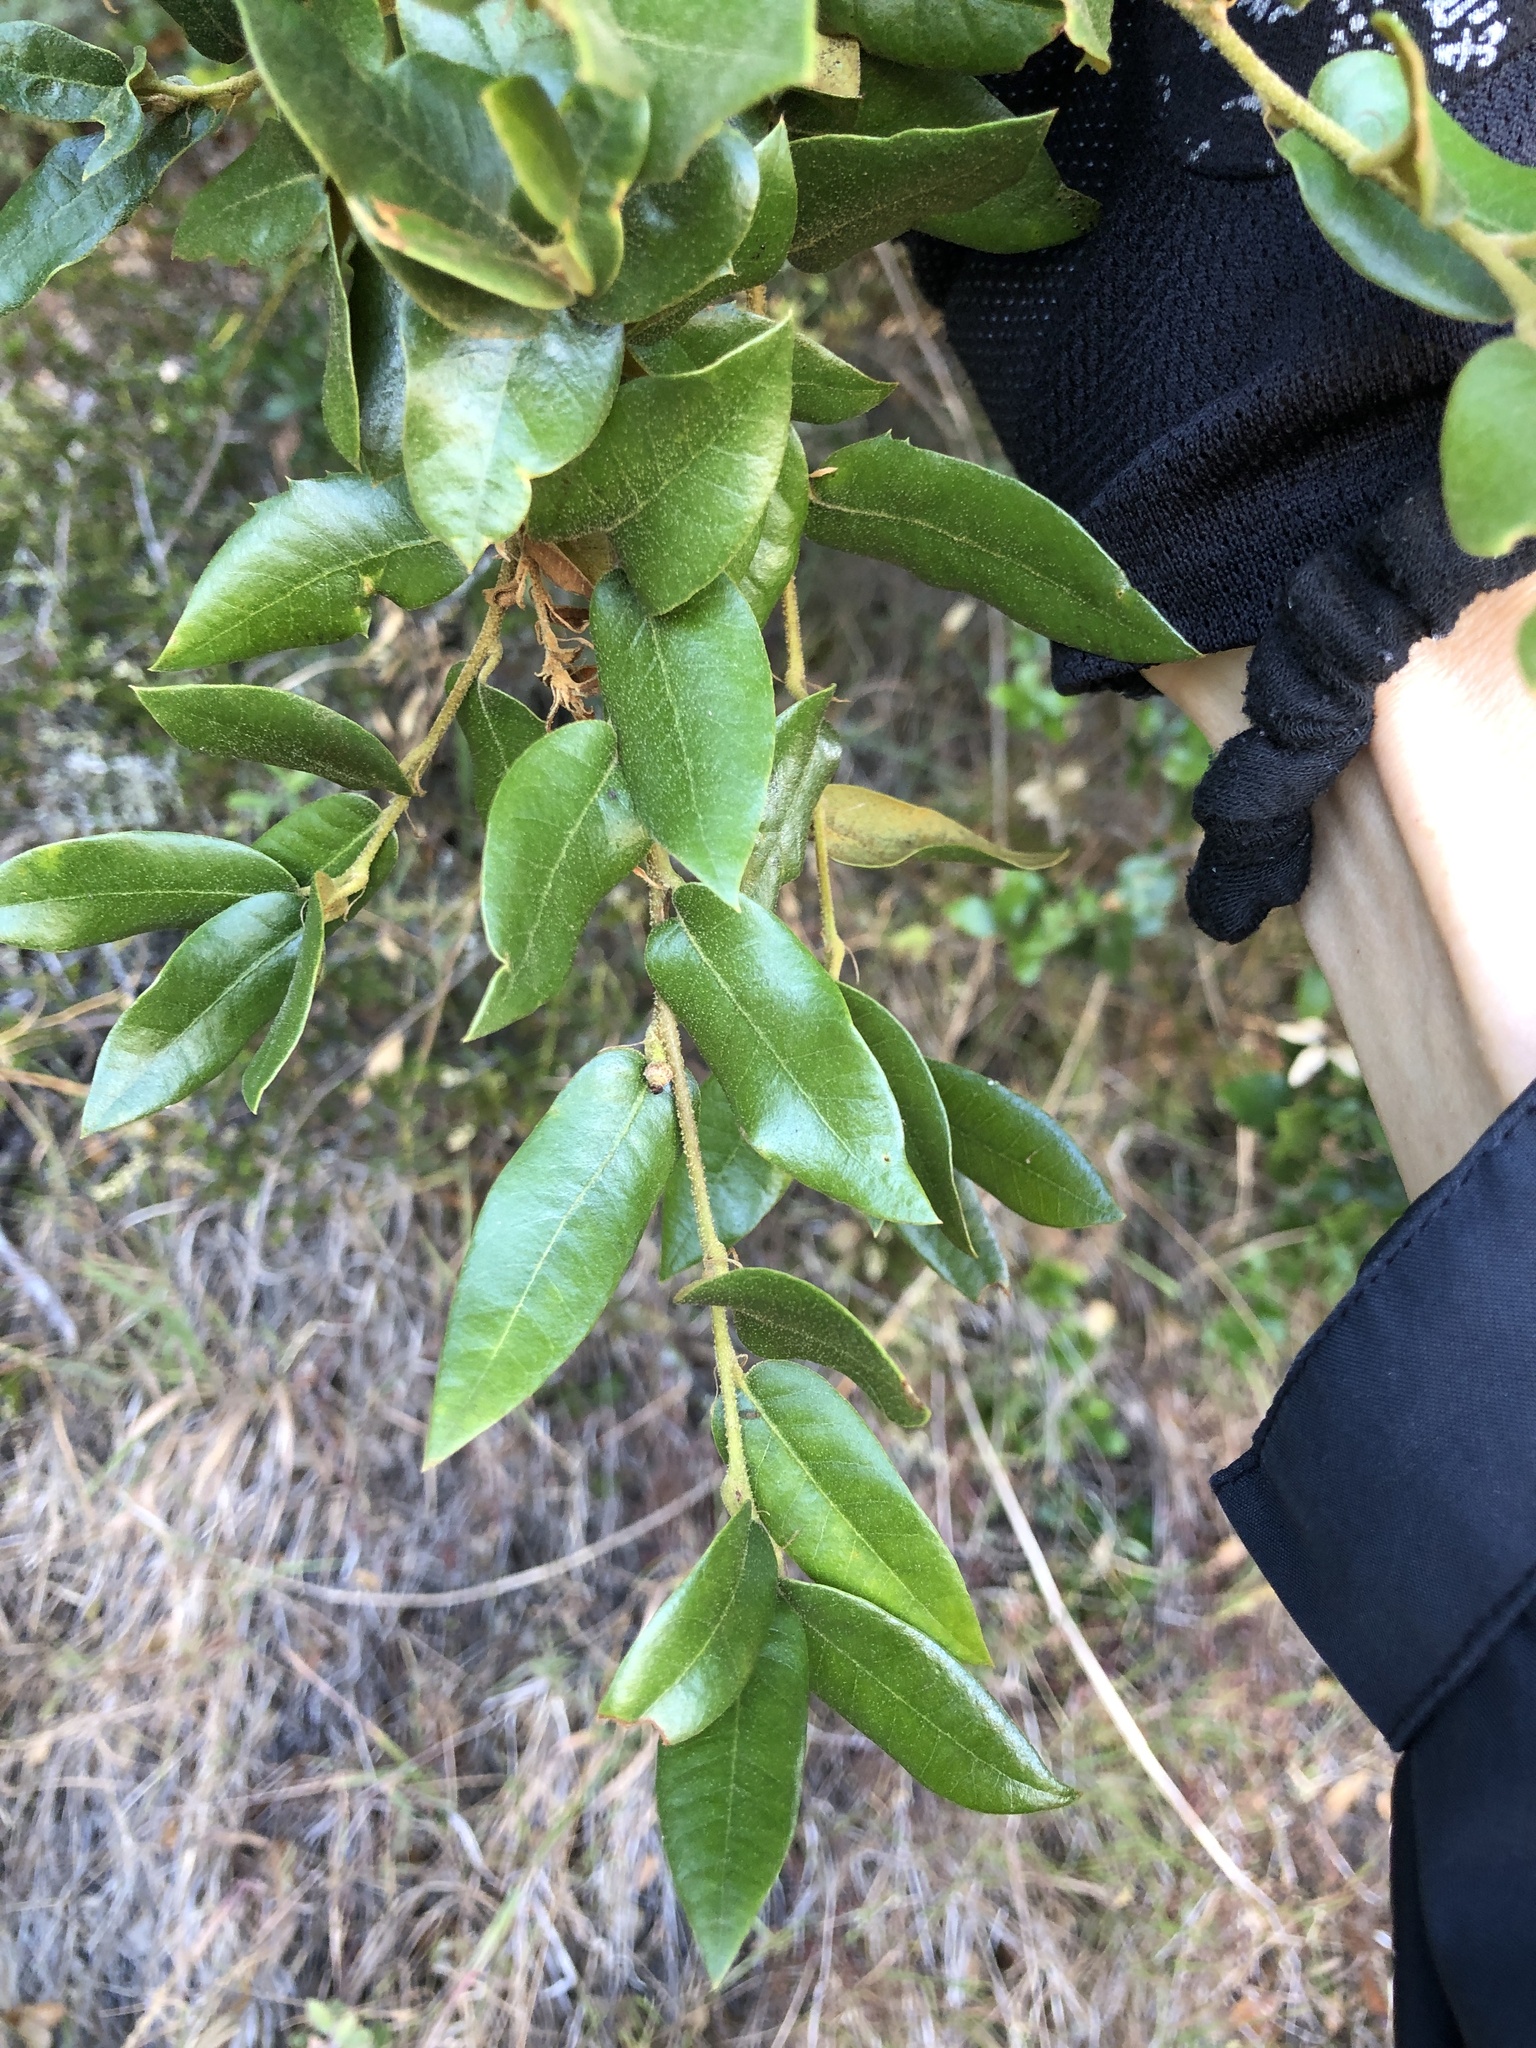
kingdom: Plantae
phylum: Tracheophyta
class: Magnoliopsida
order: Fagales
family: Fagaceae
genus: Quercus
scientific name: Quercus chrysolepis
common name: Canyon live oak
